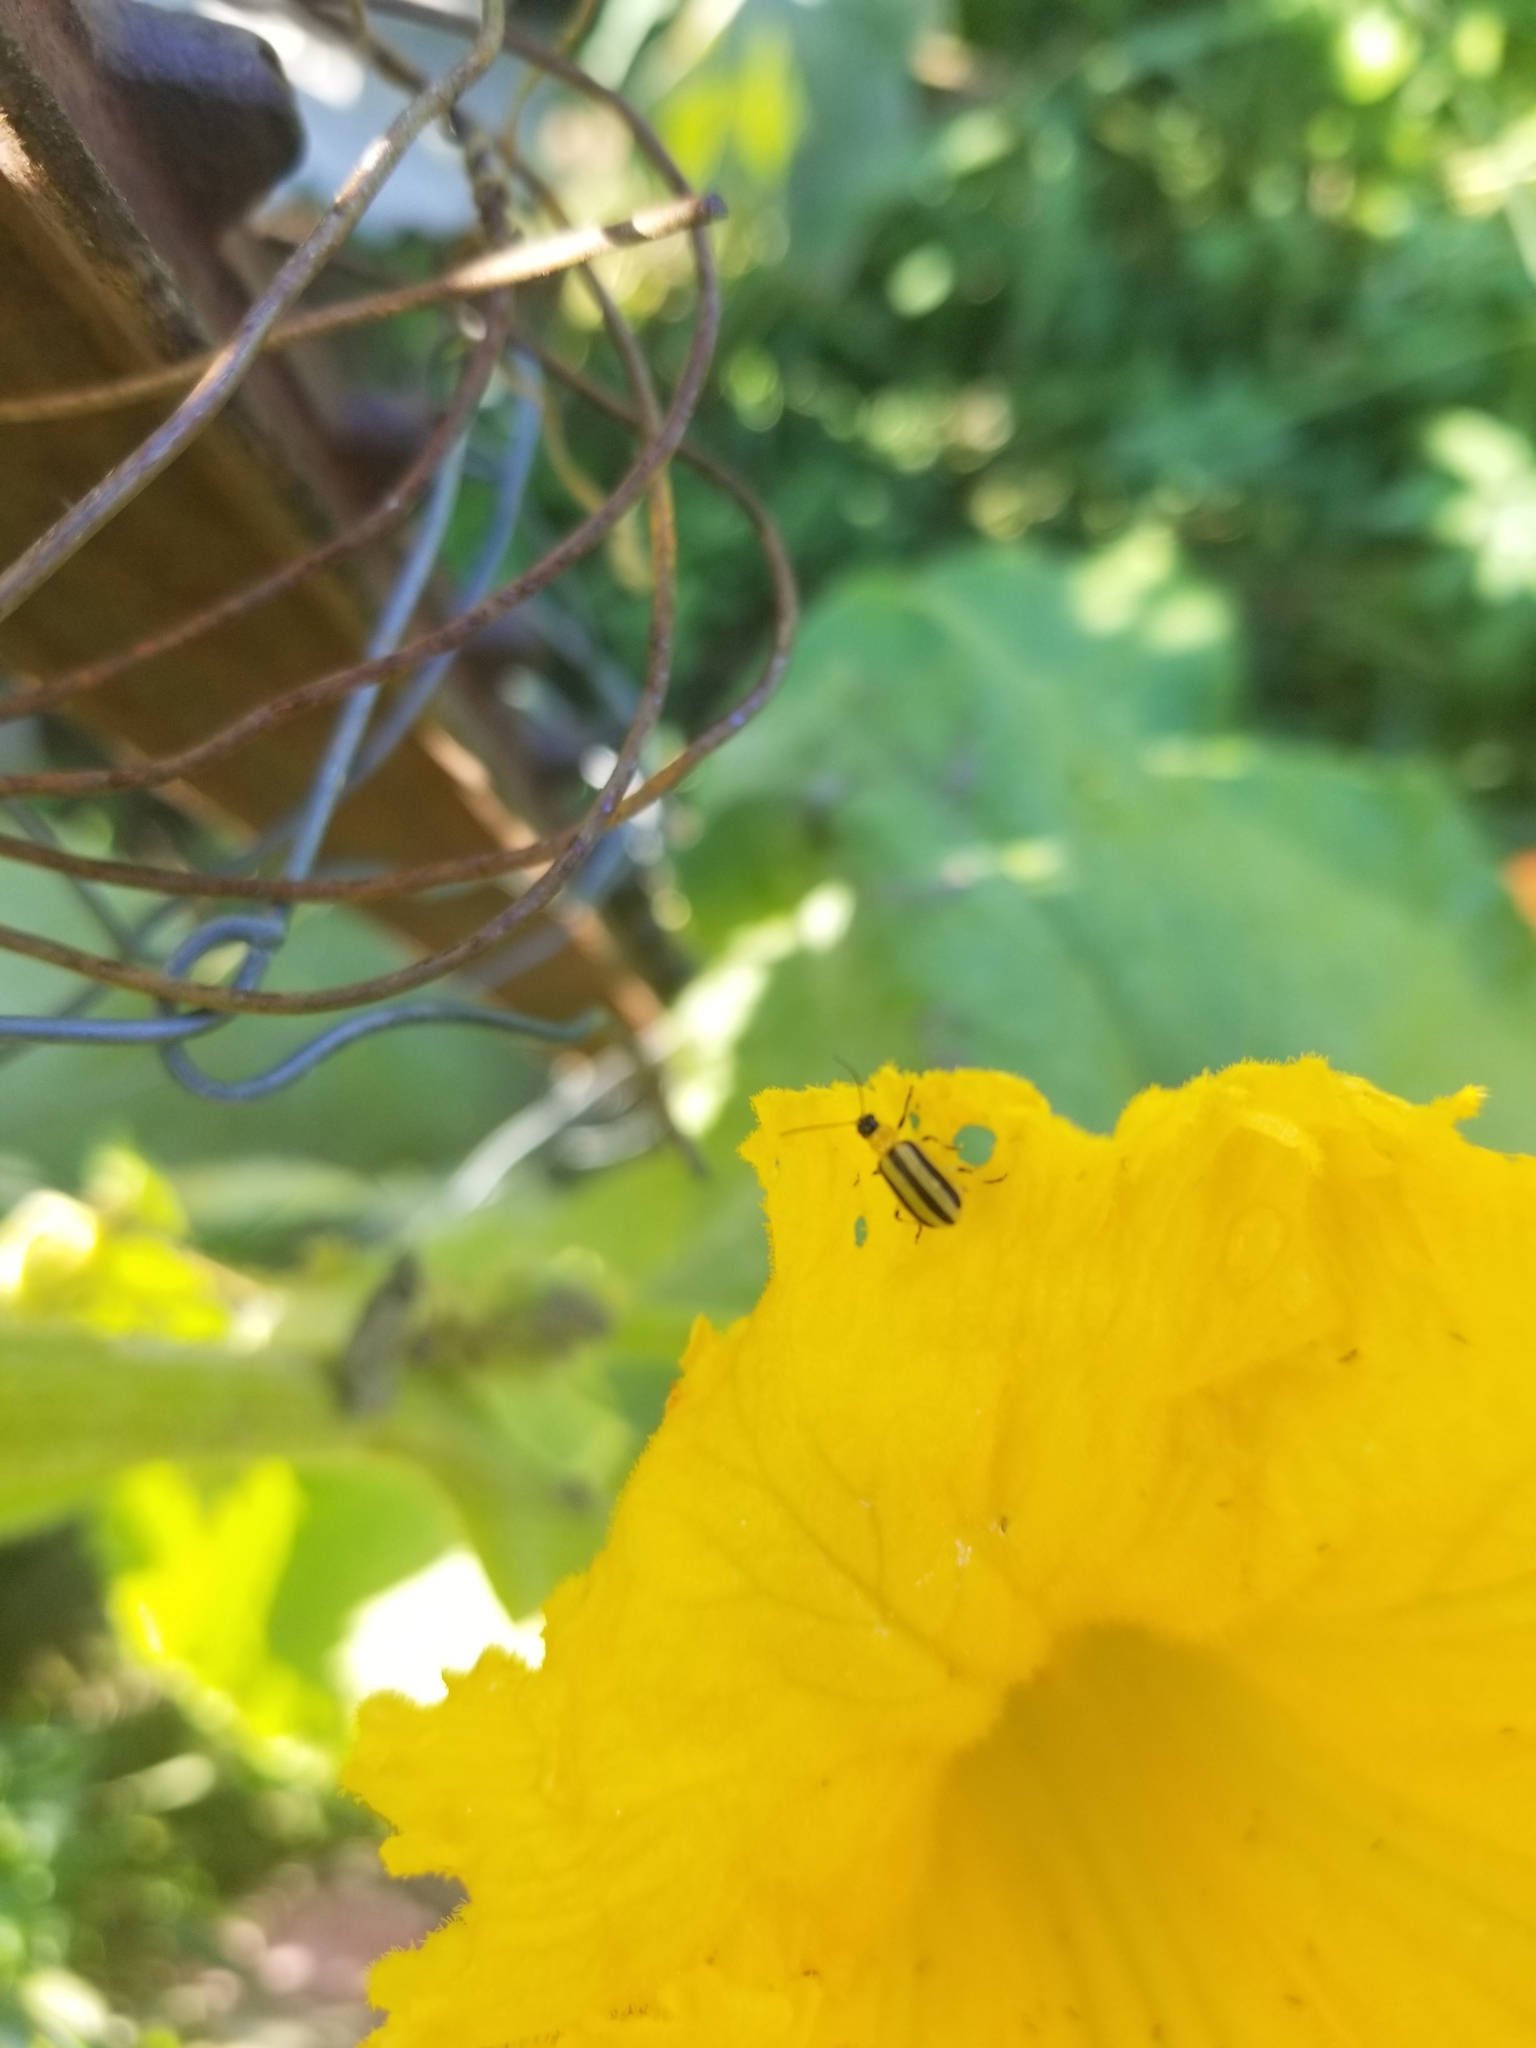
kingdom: Animalia
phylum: Arthropoda
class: Insecta
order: Coleoptera
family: Chrysomelidae
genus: Acalymma
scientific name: Acalymma vittatum
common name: Striped cucumber beetle
